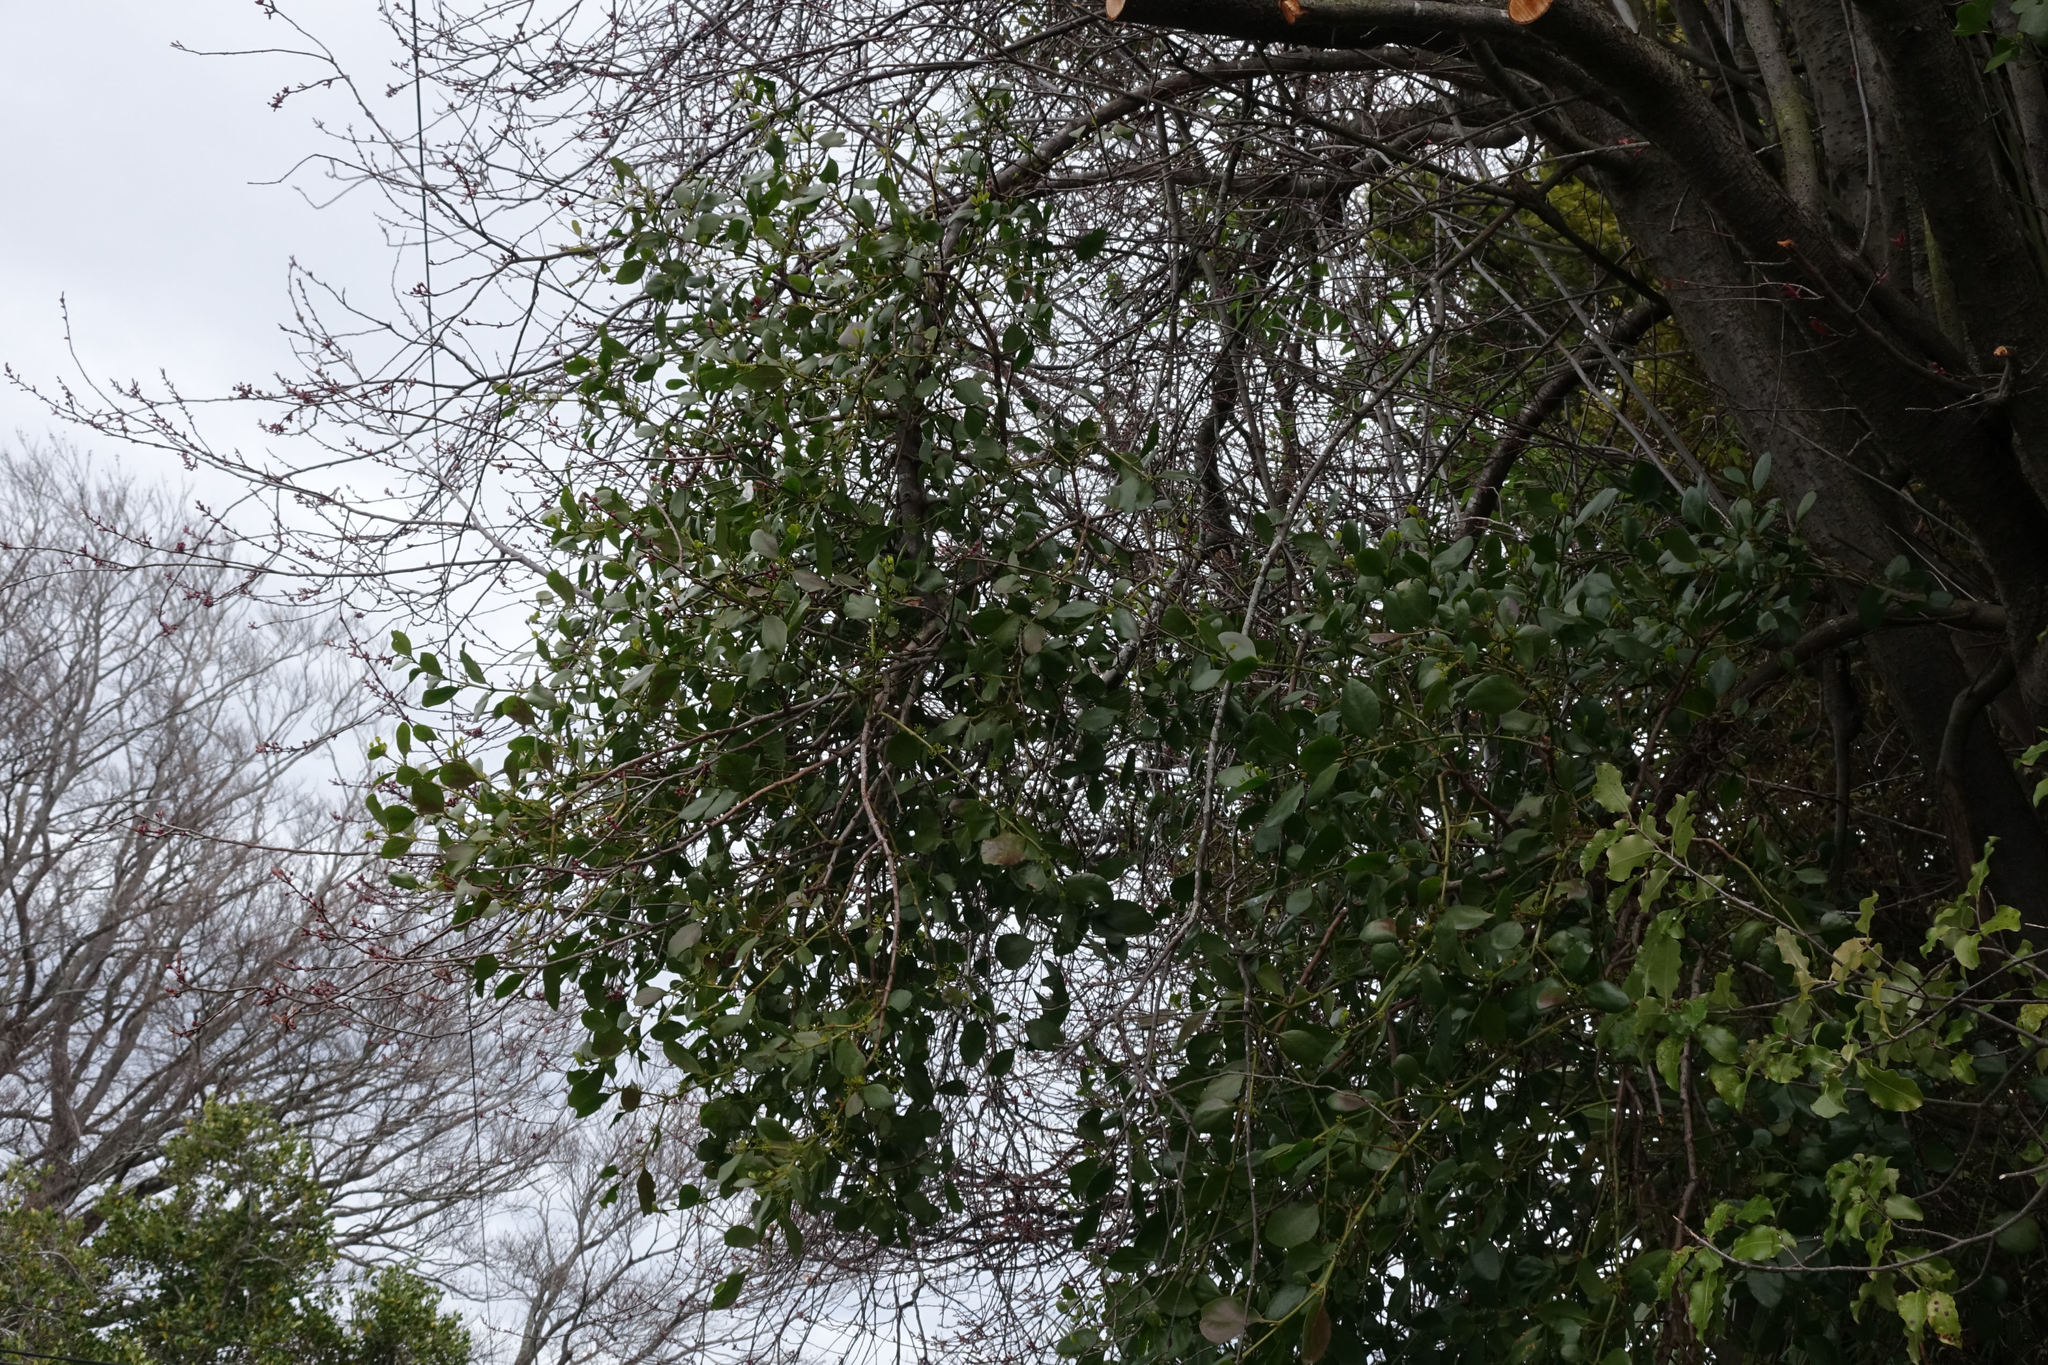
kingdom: Plantae
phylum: Tracheophyta
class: Magnoliopsida
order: Santalales
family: Loranthaceae
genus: Ileostylus
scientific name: Ileostylus micranthus
